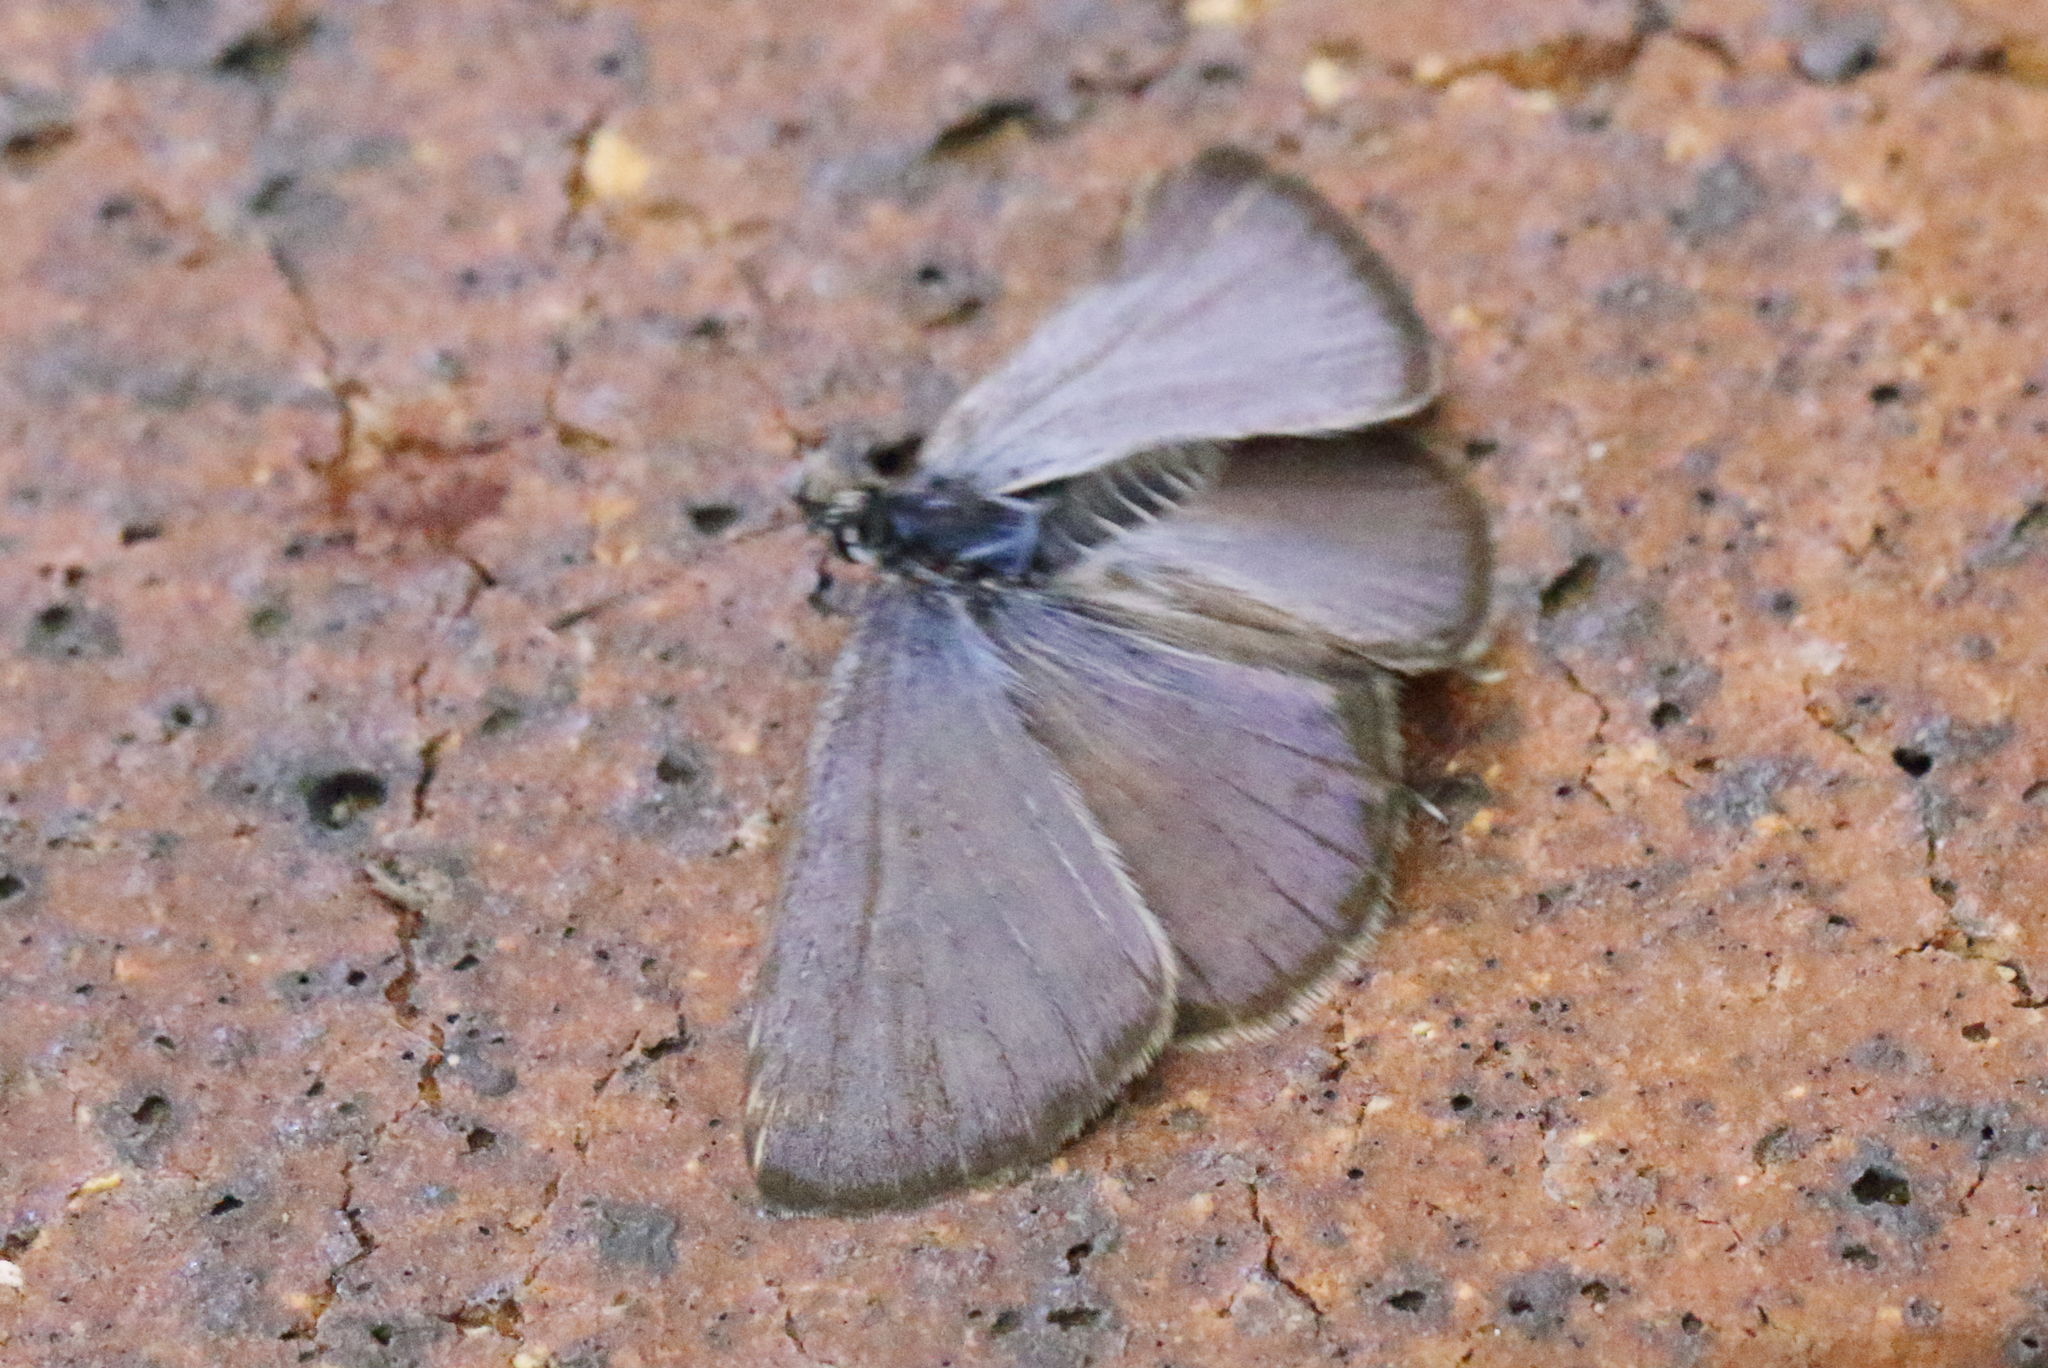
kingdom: Animalia
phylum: Arthropoda
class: Insecta
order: Lepidoptera
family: Lycaenidae
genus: Leptotes
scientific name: Leptotes plinius
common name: Zebra blue
